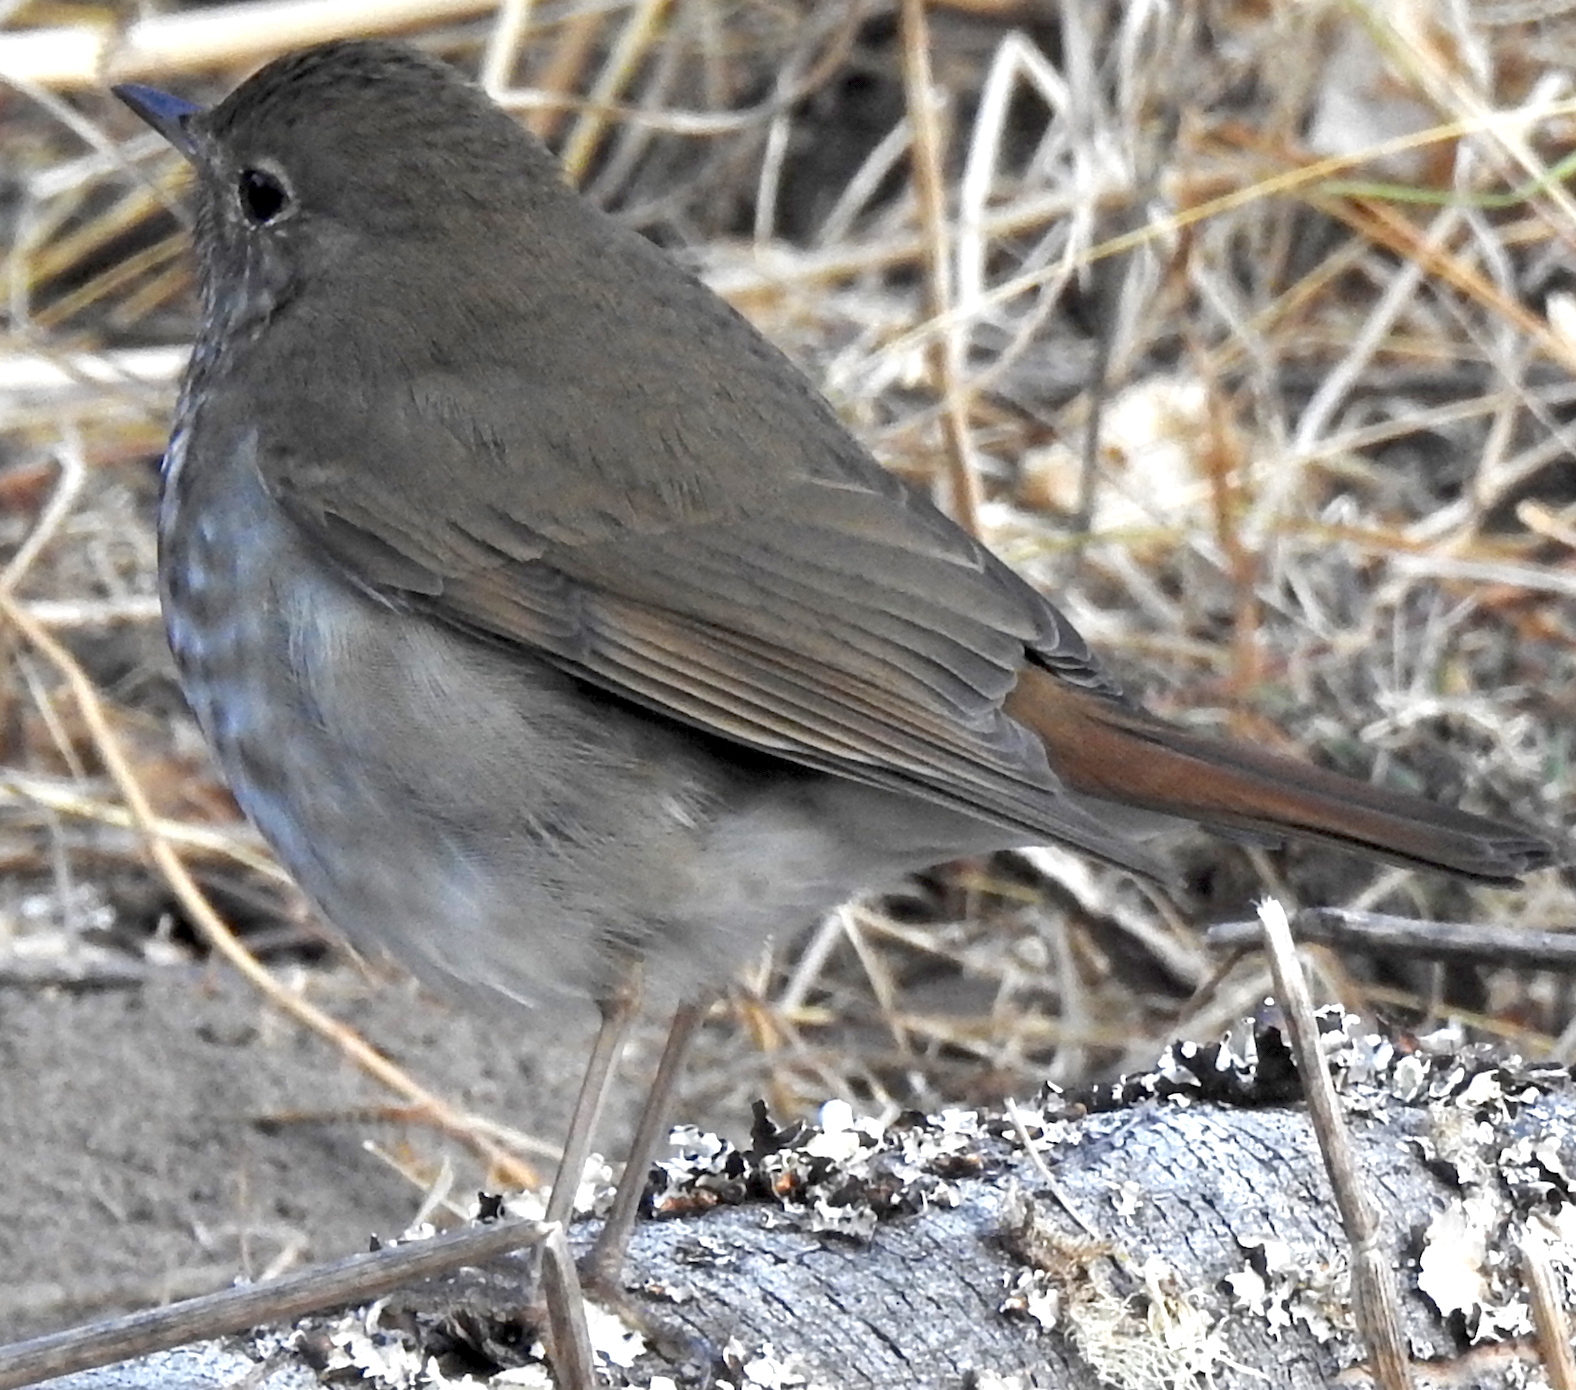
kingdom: Animalia
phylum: Chordata
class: Aves
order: Passeriformes
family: Turdidae
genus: Catharus
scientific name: Catharus guttatus
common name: Hermit thrush
